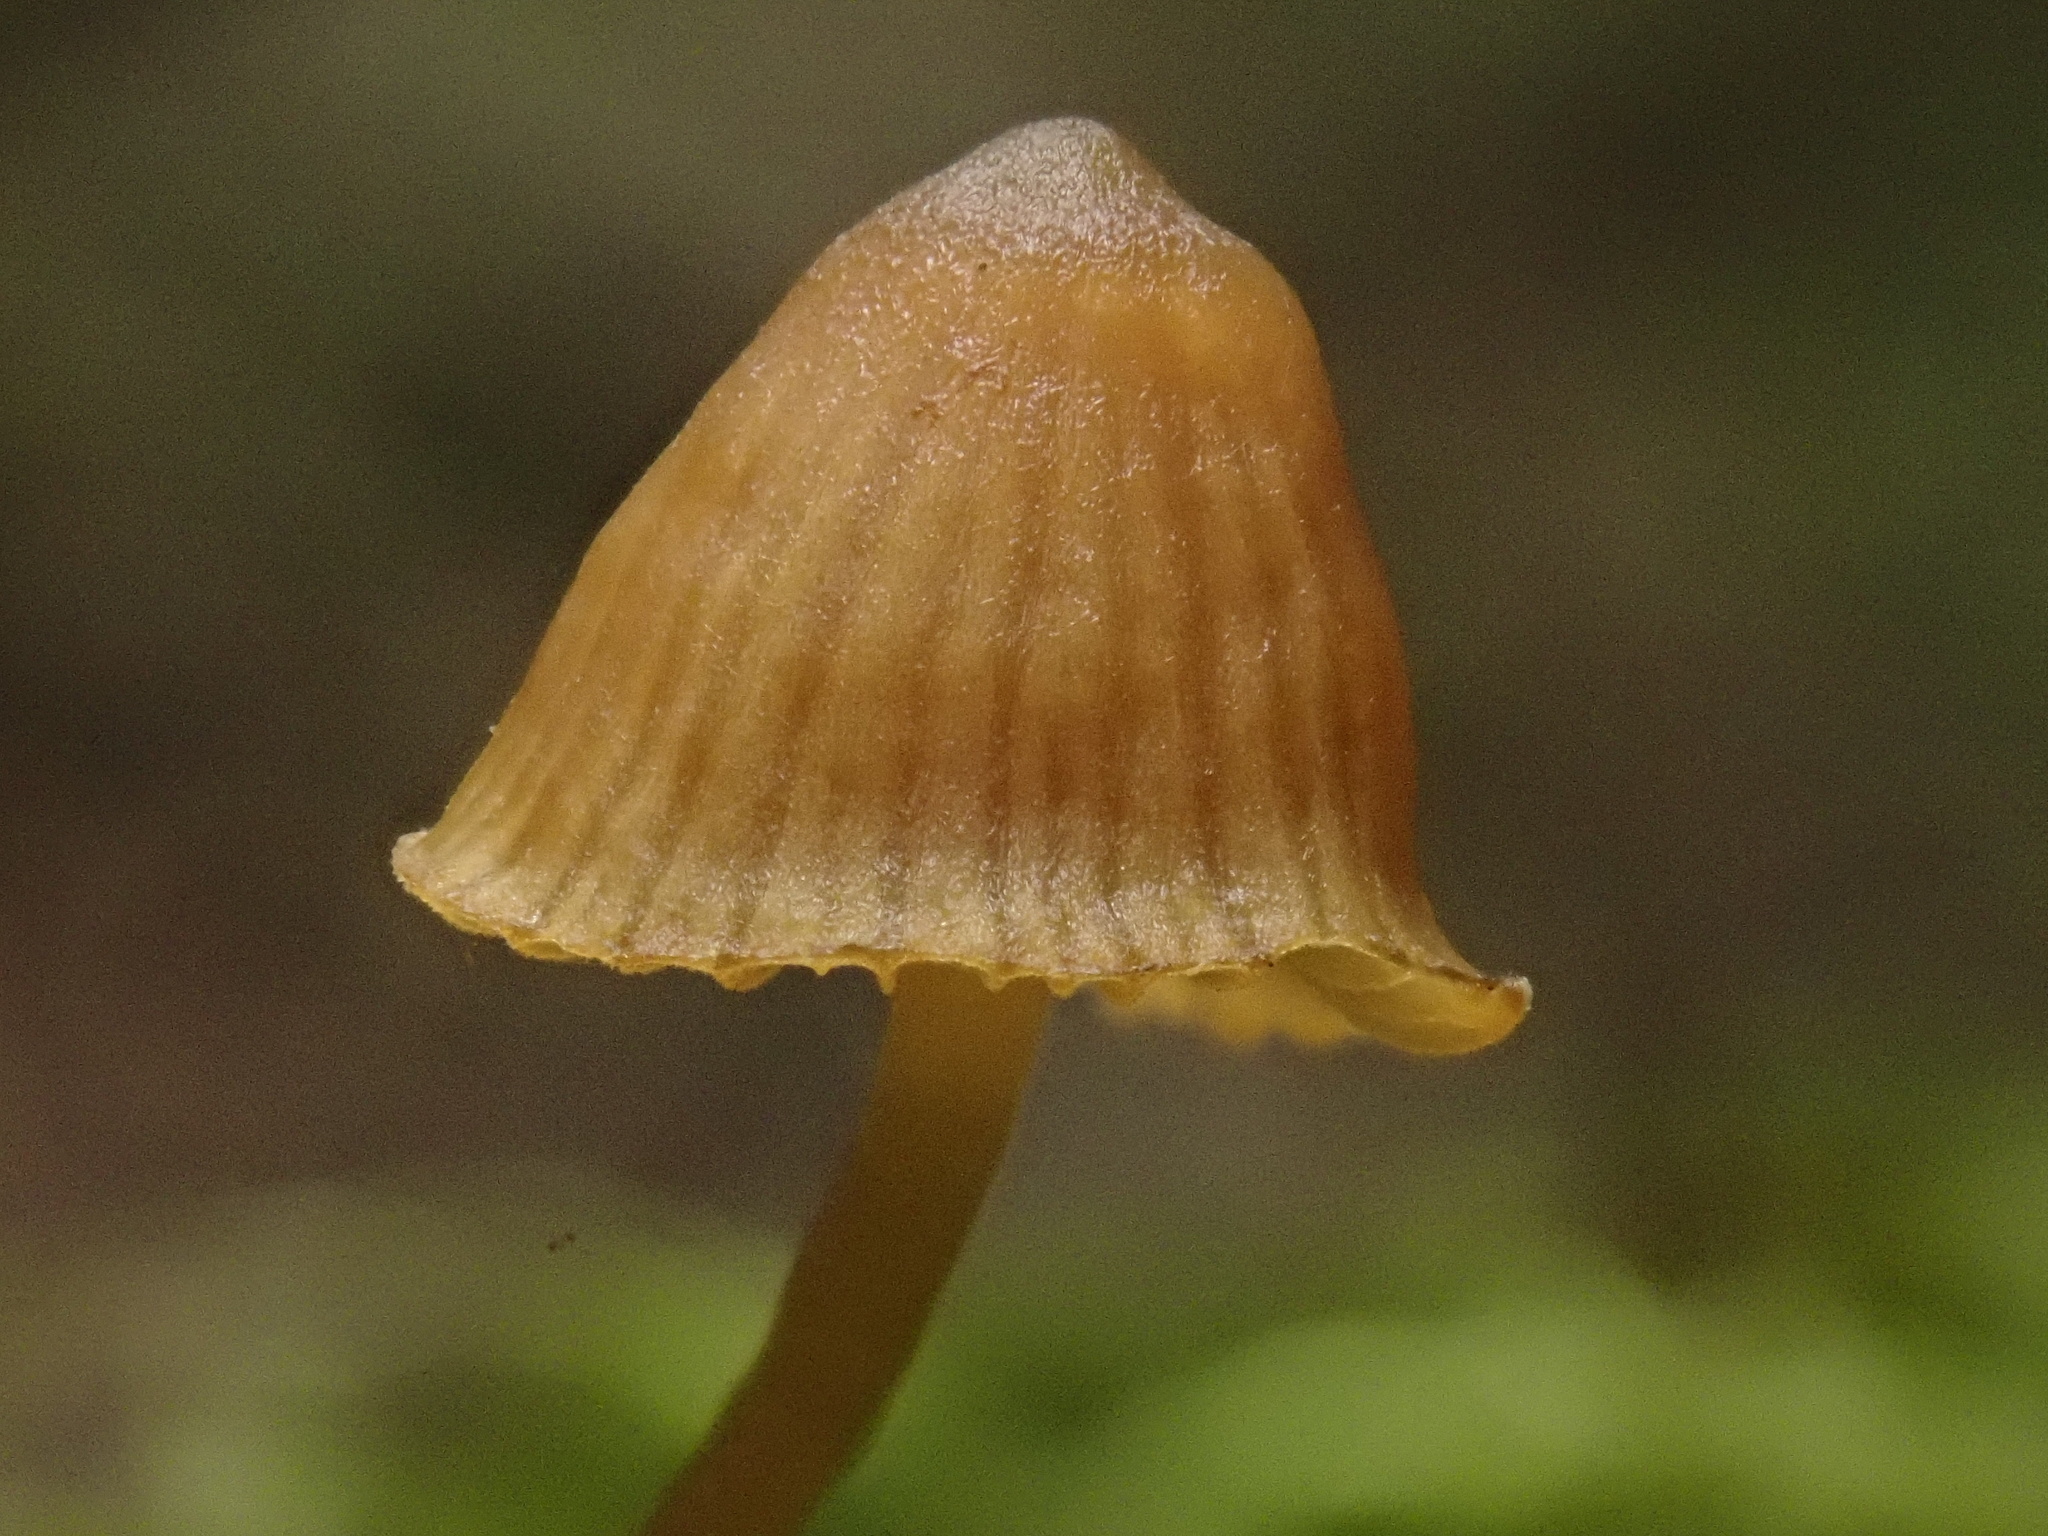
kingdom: Fungi
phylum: Basidiomycota
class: Agaricomycetes
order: Agaricales
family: Hymenogastraceae
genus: Galerina
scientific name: Galerina hypnorum
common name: Moss bell
